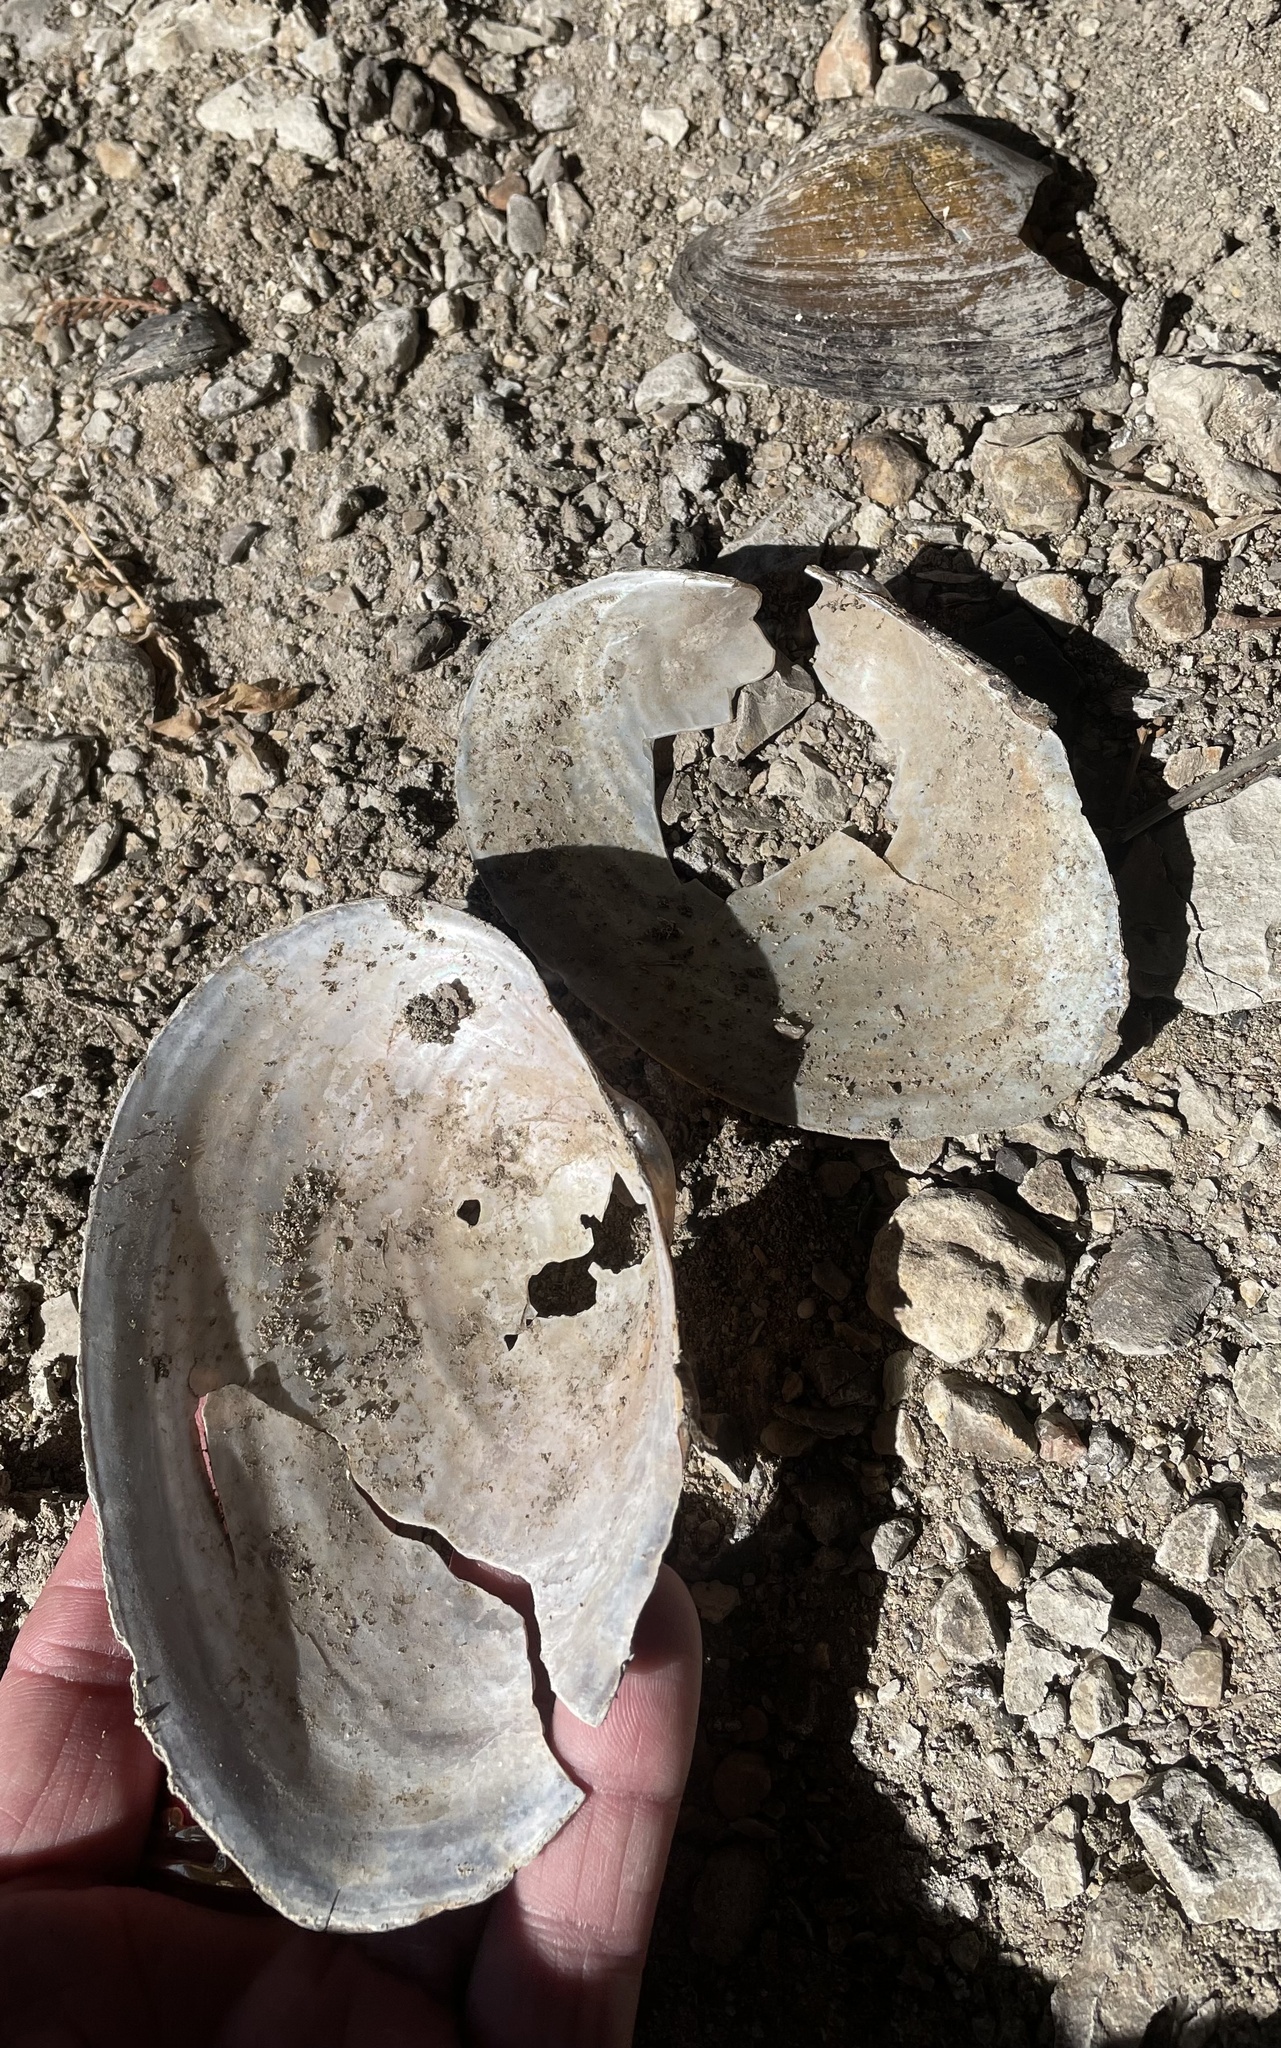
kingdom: Animalia
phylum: Mollusca
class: Bivalvia
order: Unionida
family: Unionidae
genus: Pyganodon
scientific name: Pyganodon grandis
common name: Giant floater
